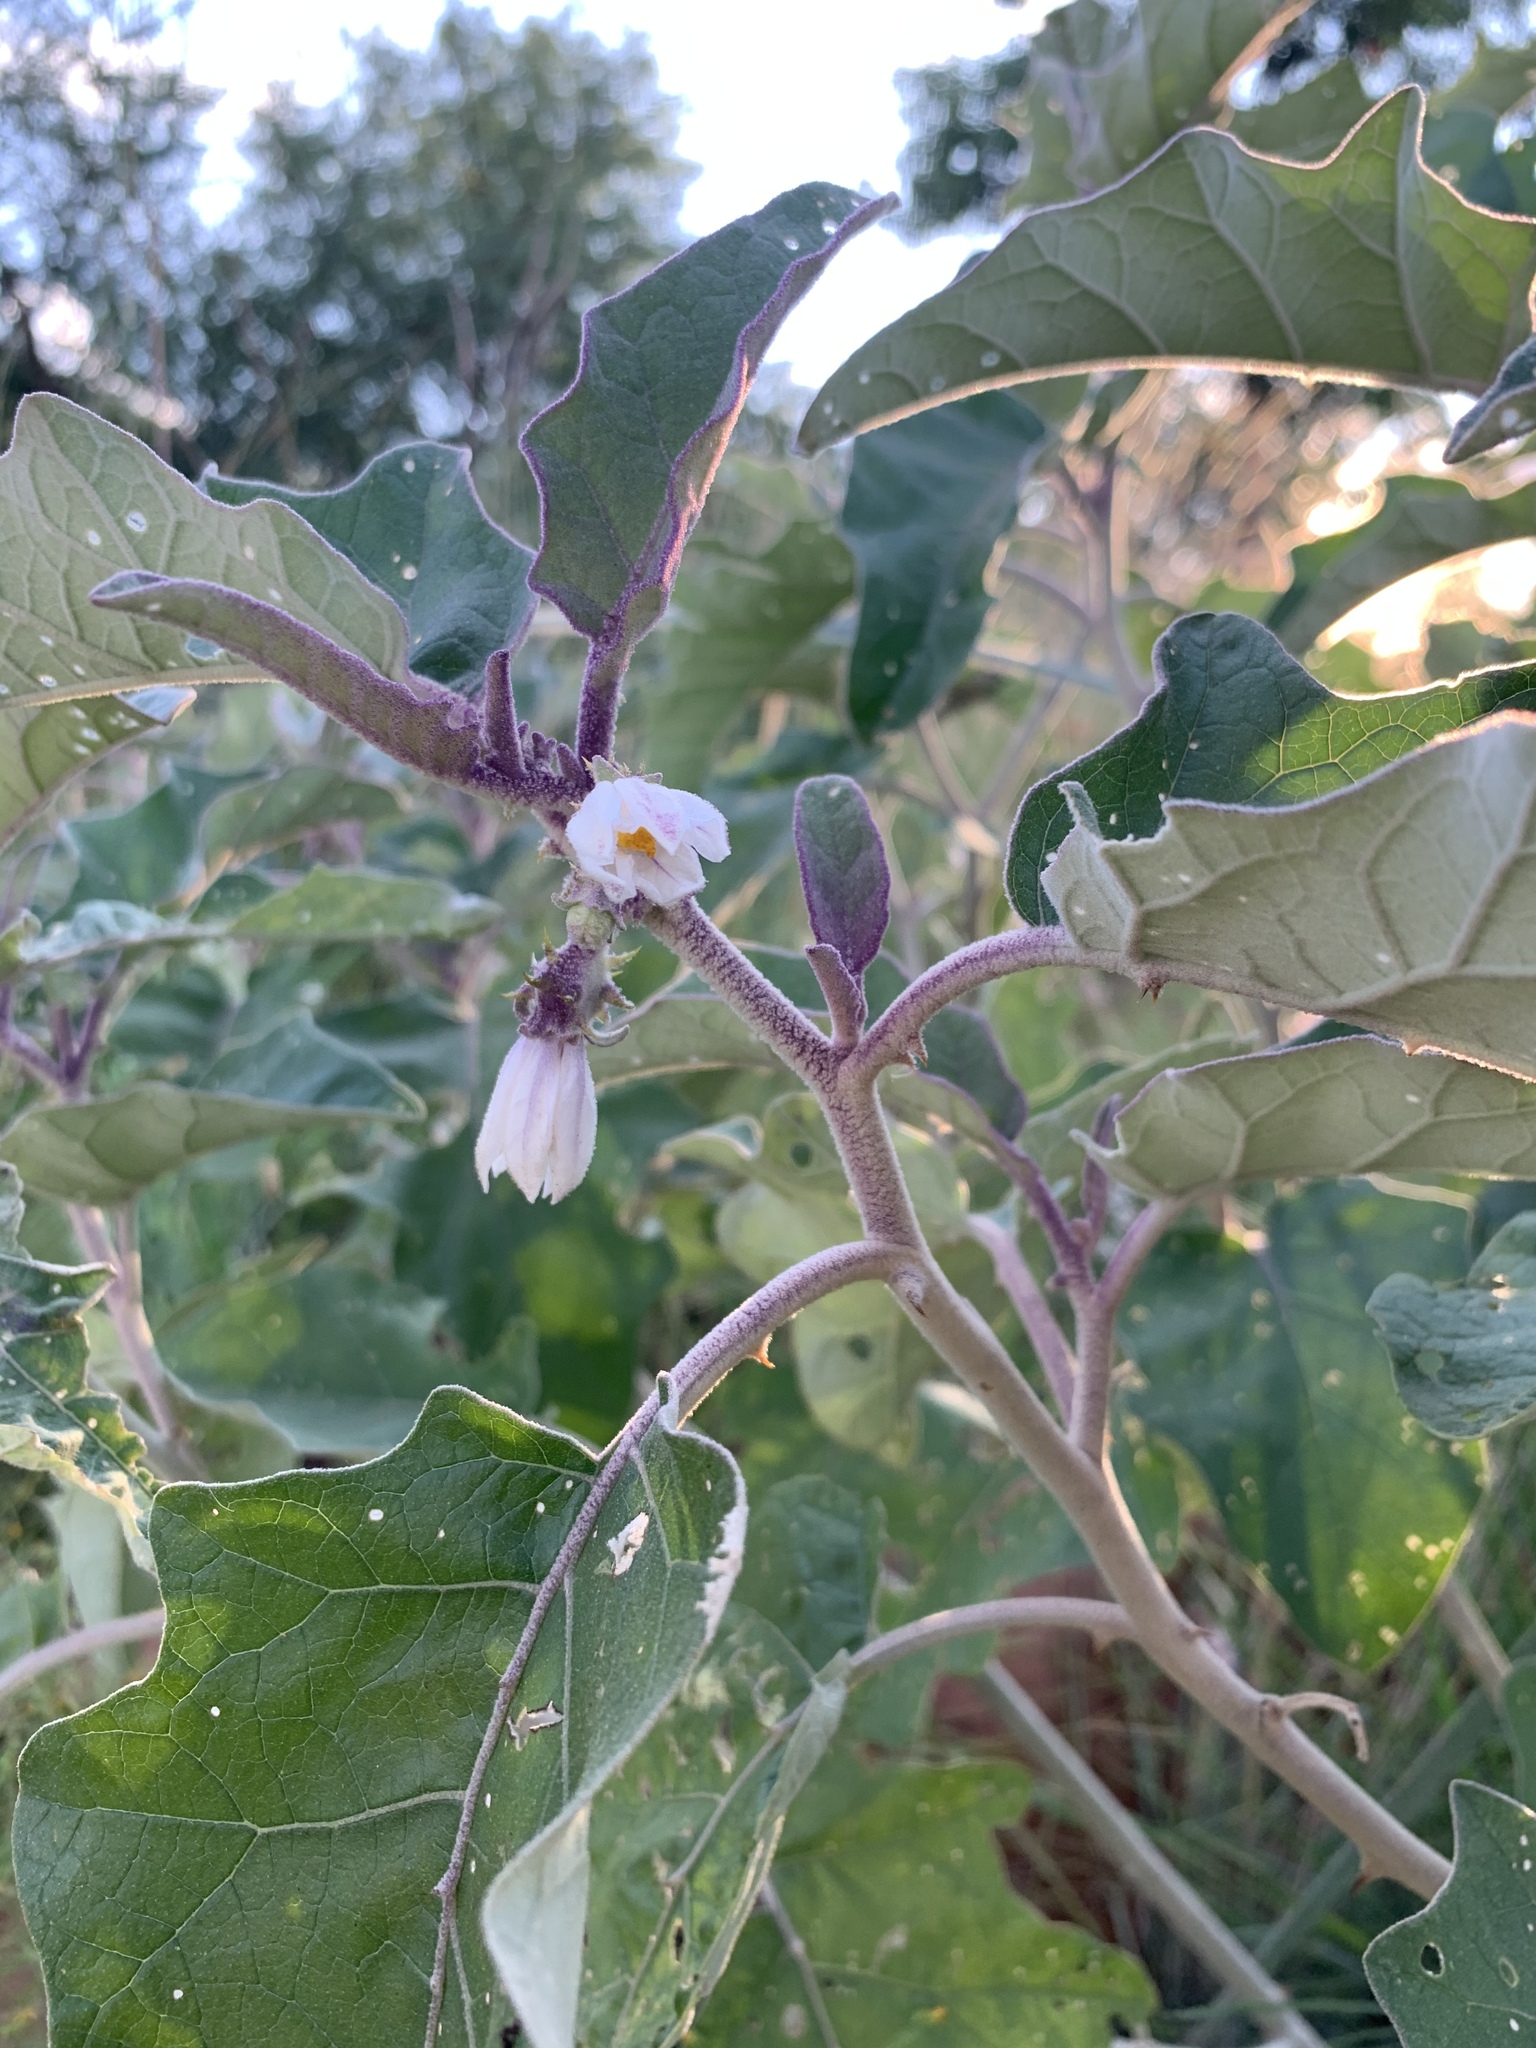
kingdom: Plantae
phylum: Tracheophyta
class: Magnoliopsida
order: Solanales
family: Solanaceae
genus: Solanum
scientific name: Solanum lichtensteinii
